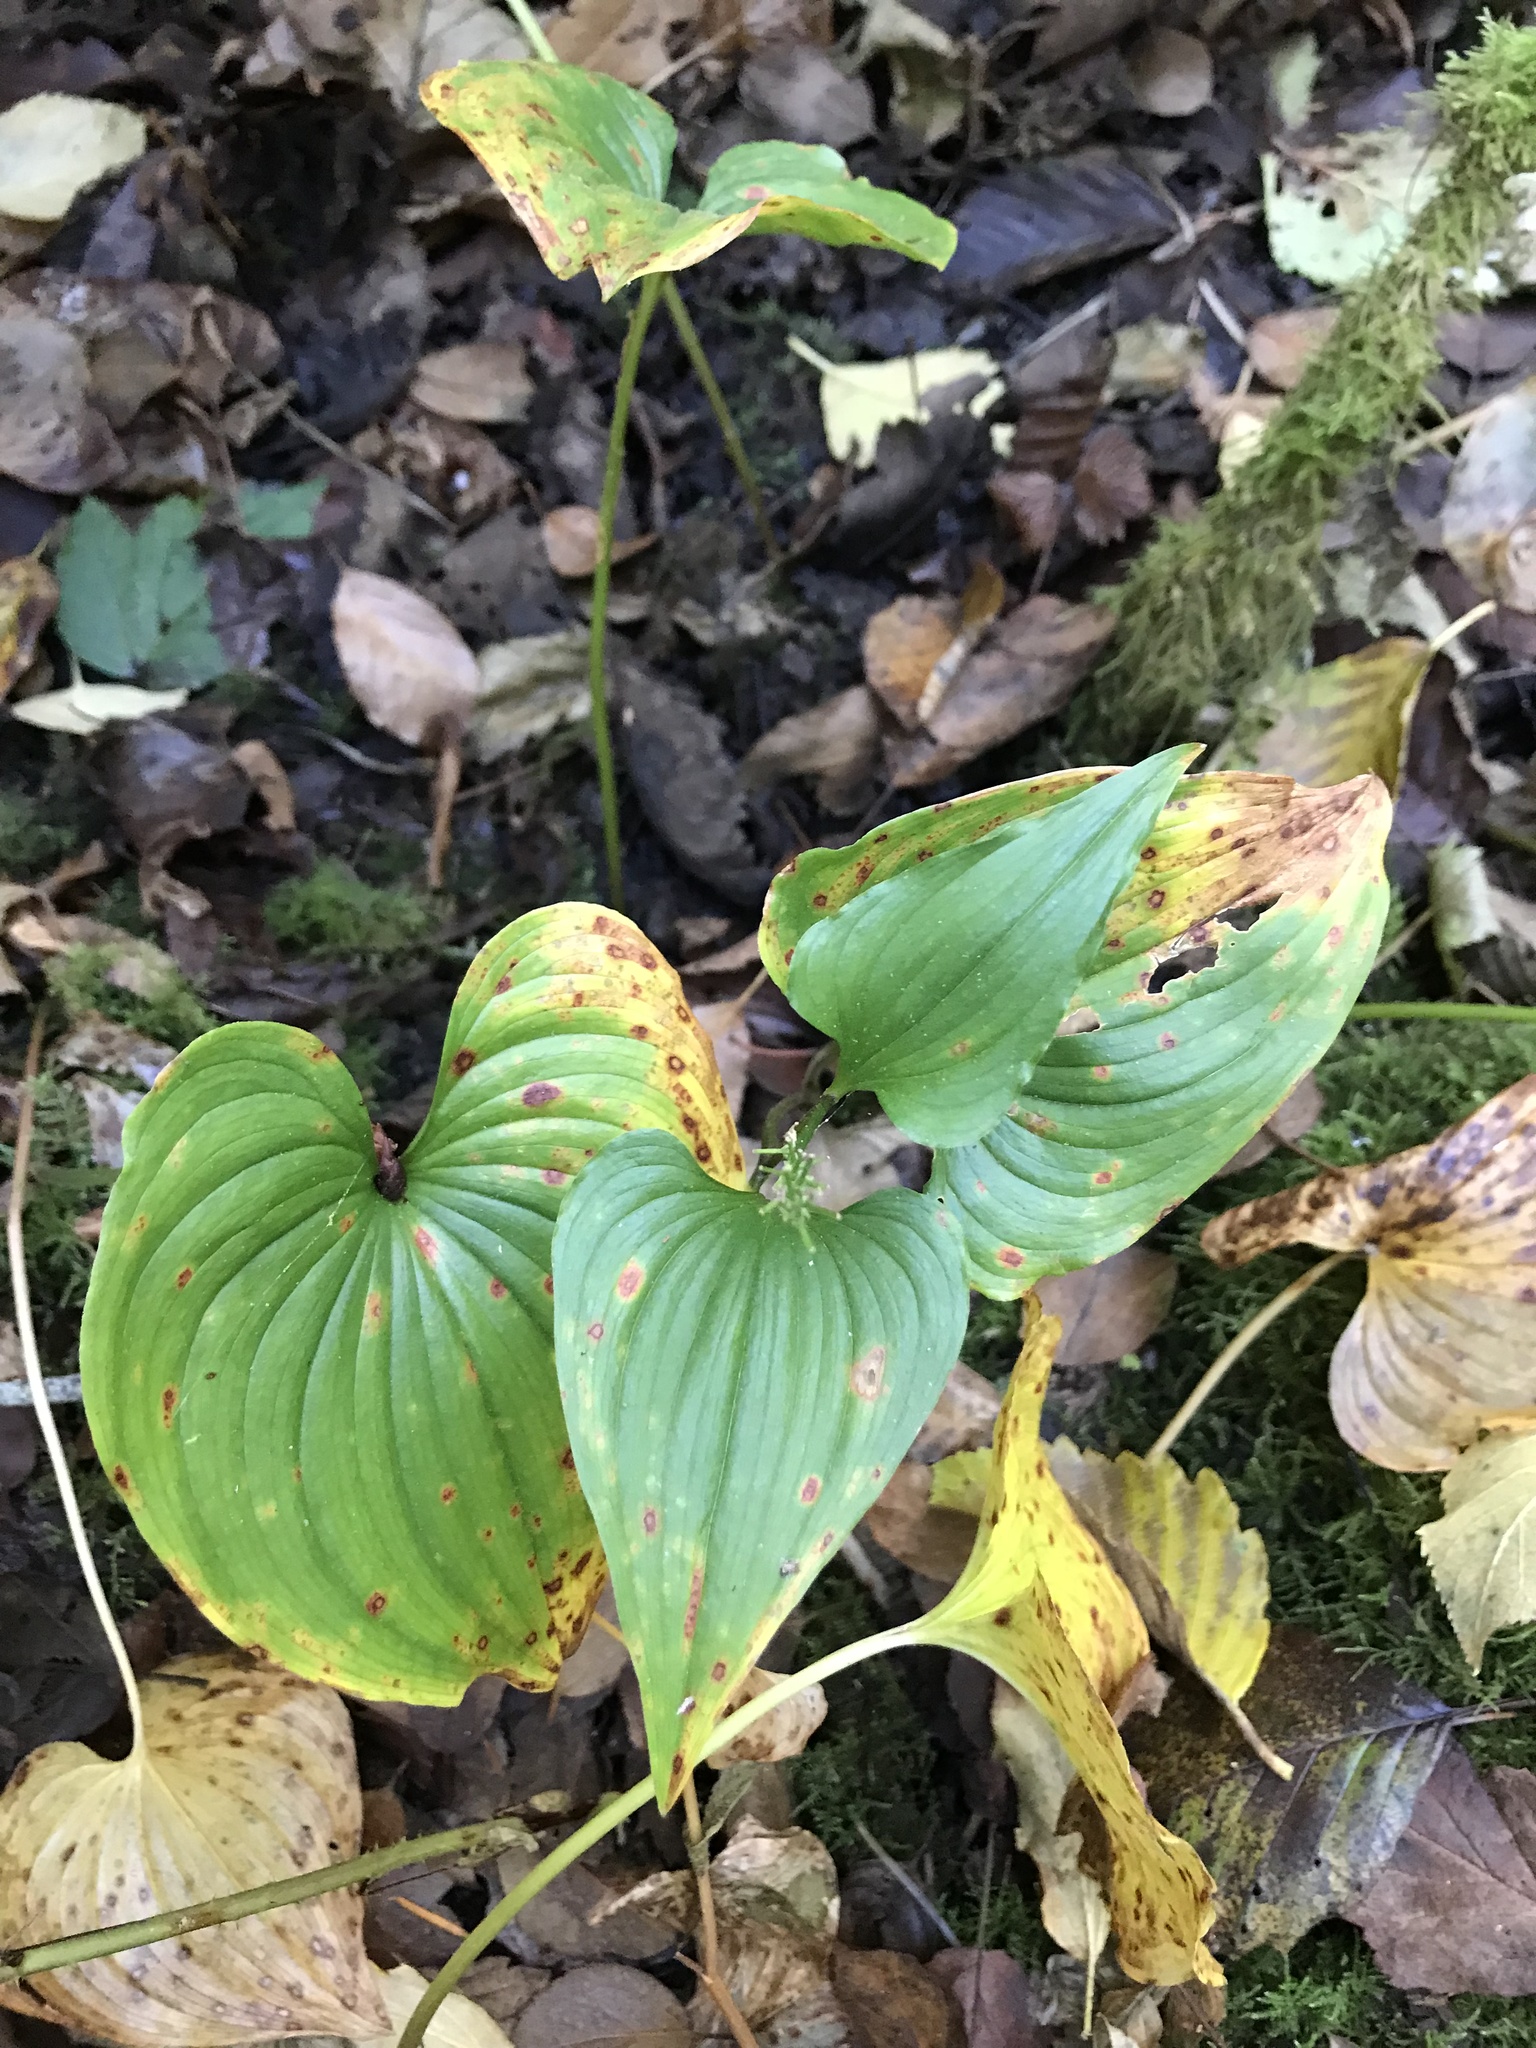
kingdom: Plantae
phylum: Tracheophyta
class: Liliopsida
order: Asparagales
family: Asparagaceae
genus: Maianthemum
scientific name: Maianthemum dilatatum
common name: False lily-of-the-valley
